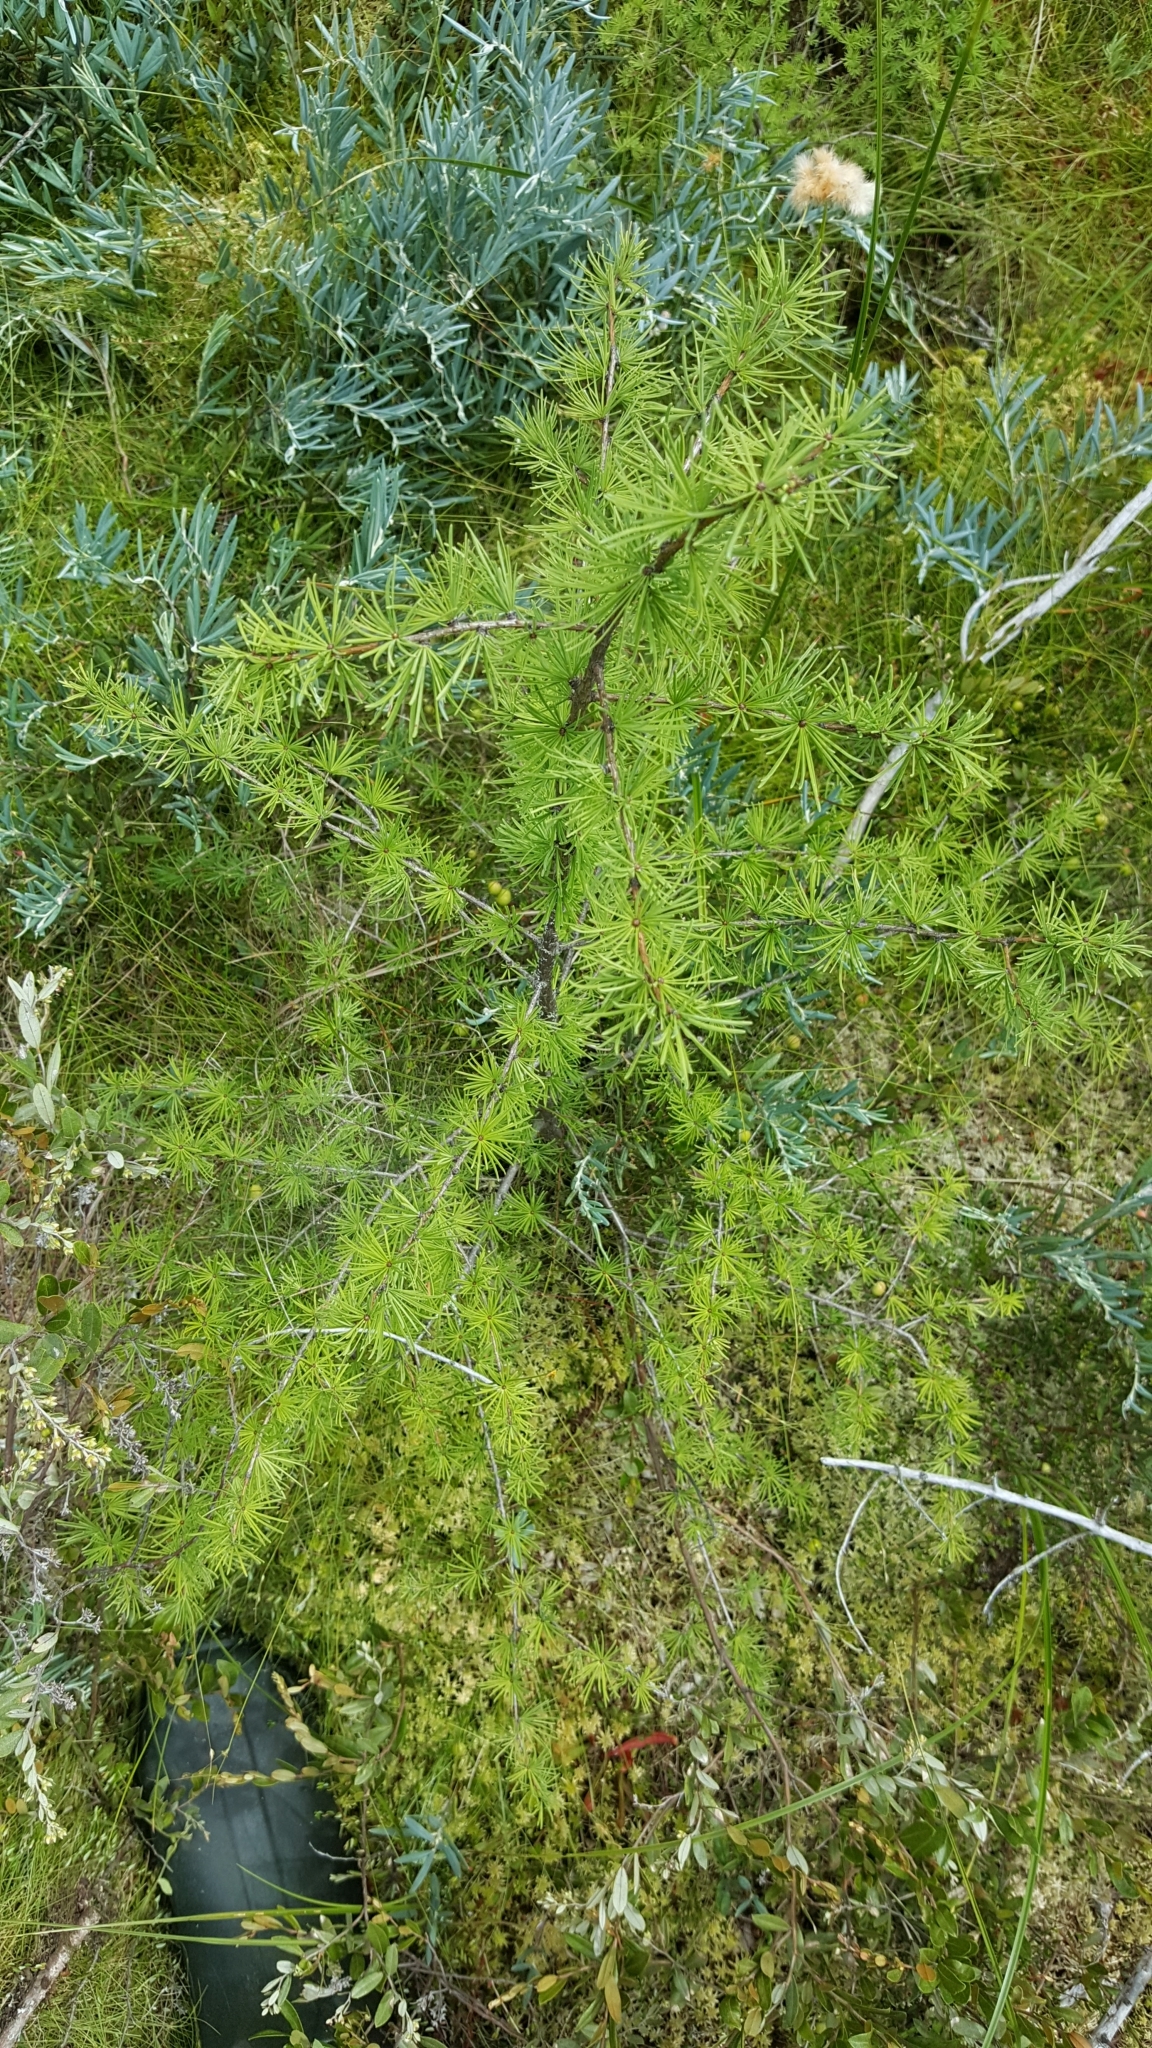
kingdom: Plantae
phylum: Tracheophyta
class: Pinopsida
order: Pinales
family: Pinaceae
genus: Larix
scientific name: Larix laricina
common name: American larch
